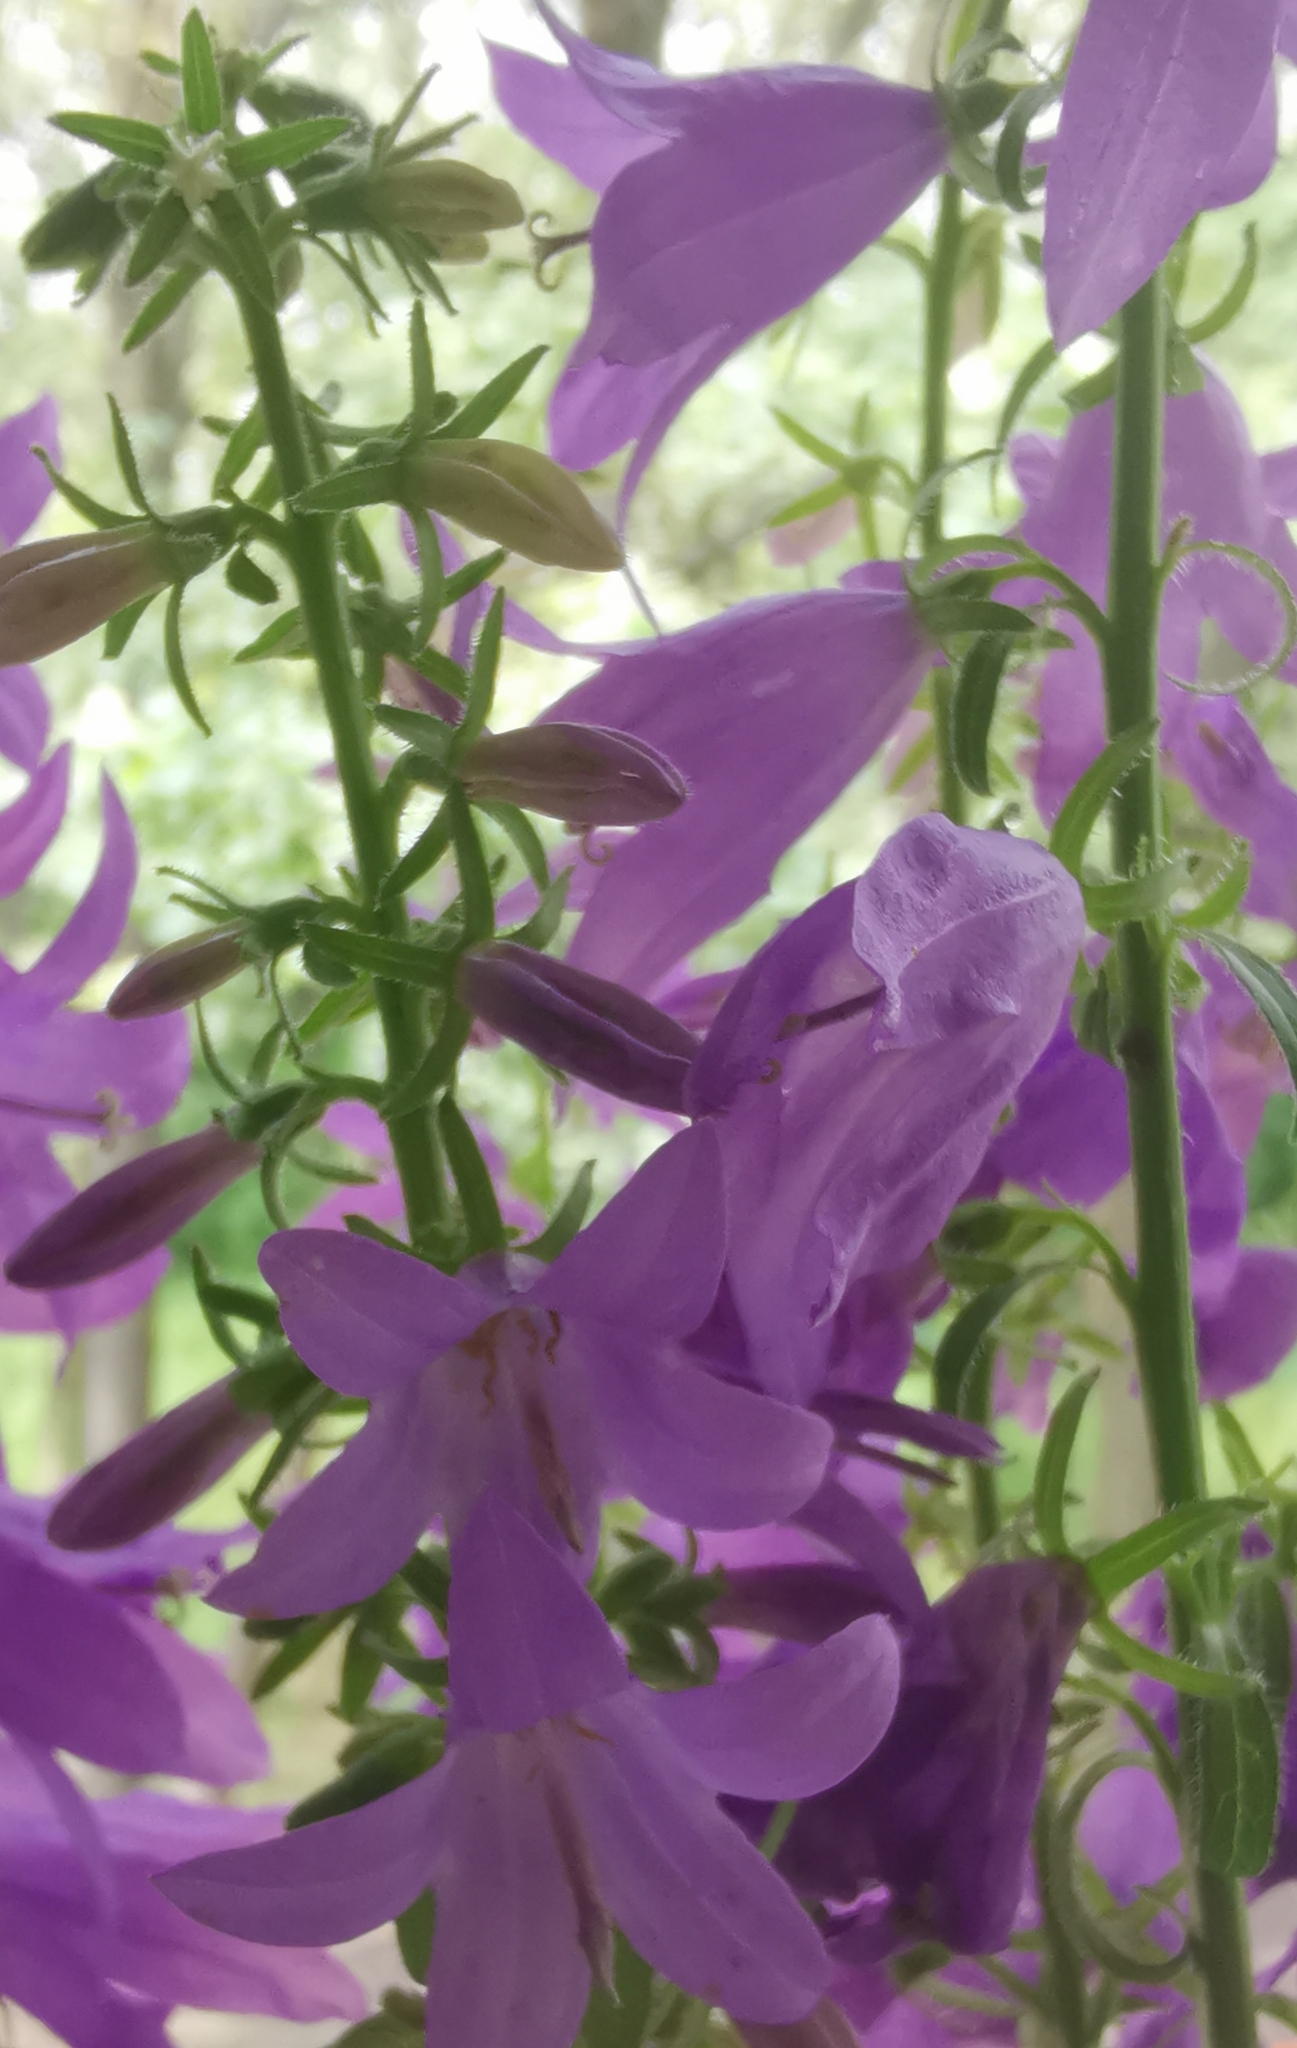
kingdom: Plantae
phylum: Tracheophyta
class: Magnoliopsida
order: Asterales
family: Campanulaceae
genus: Campanula
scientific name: Campanula rapunculoides
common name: Creeping bellflower
